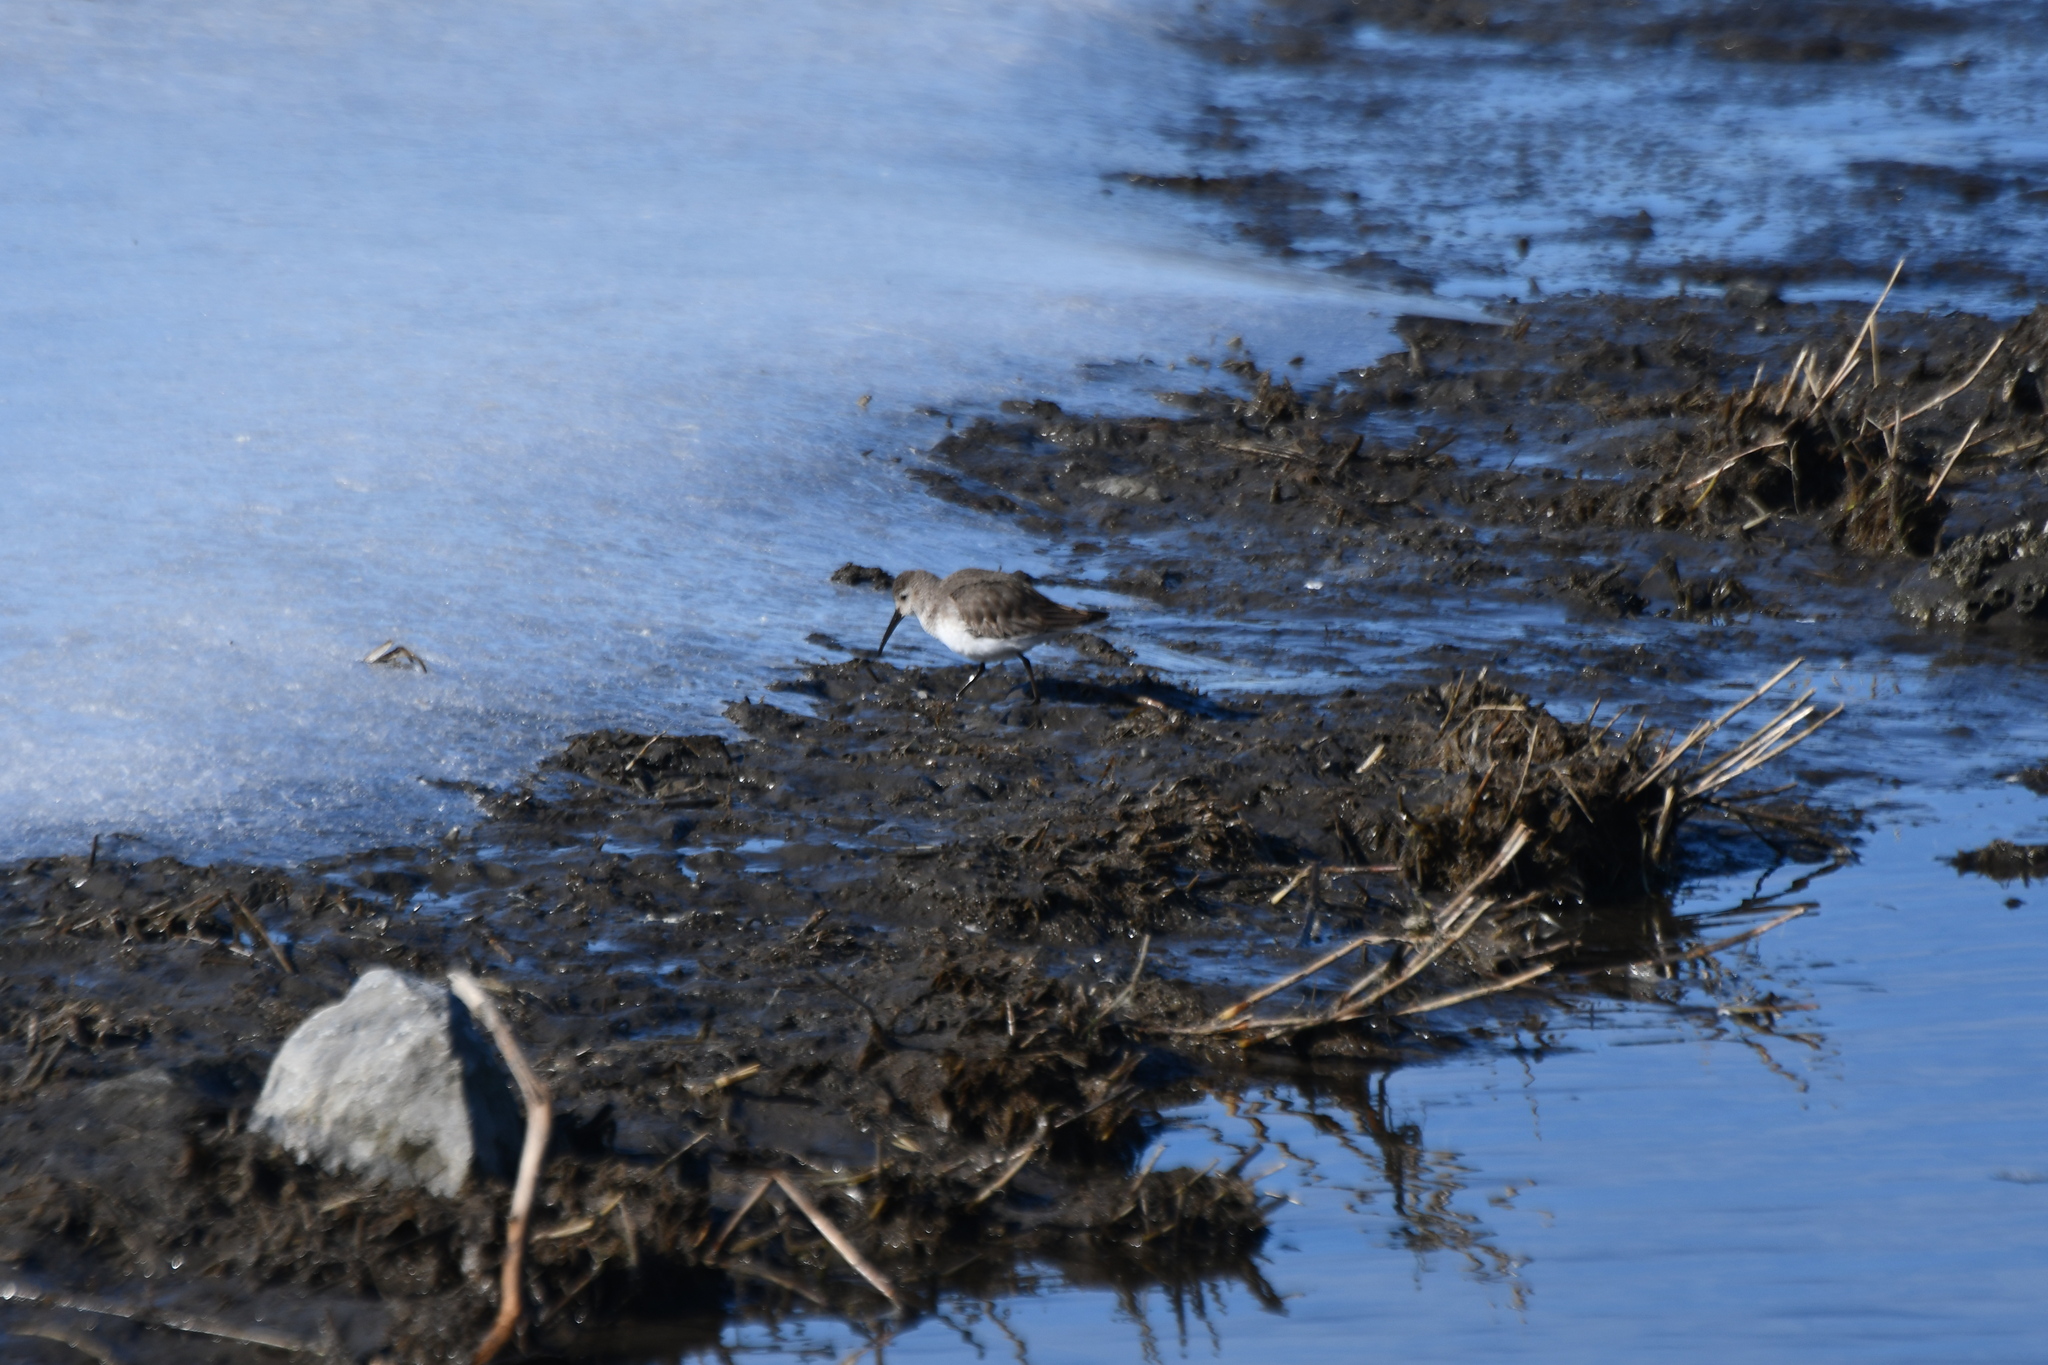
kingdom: Animalia
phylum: Chordata
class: Aves
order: Charadriiformes
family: Scolopacidae
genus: Calidris
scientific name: Calidris alpina
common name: Dunlin
